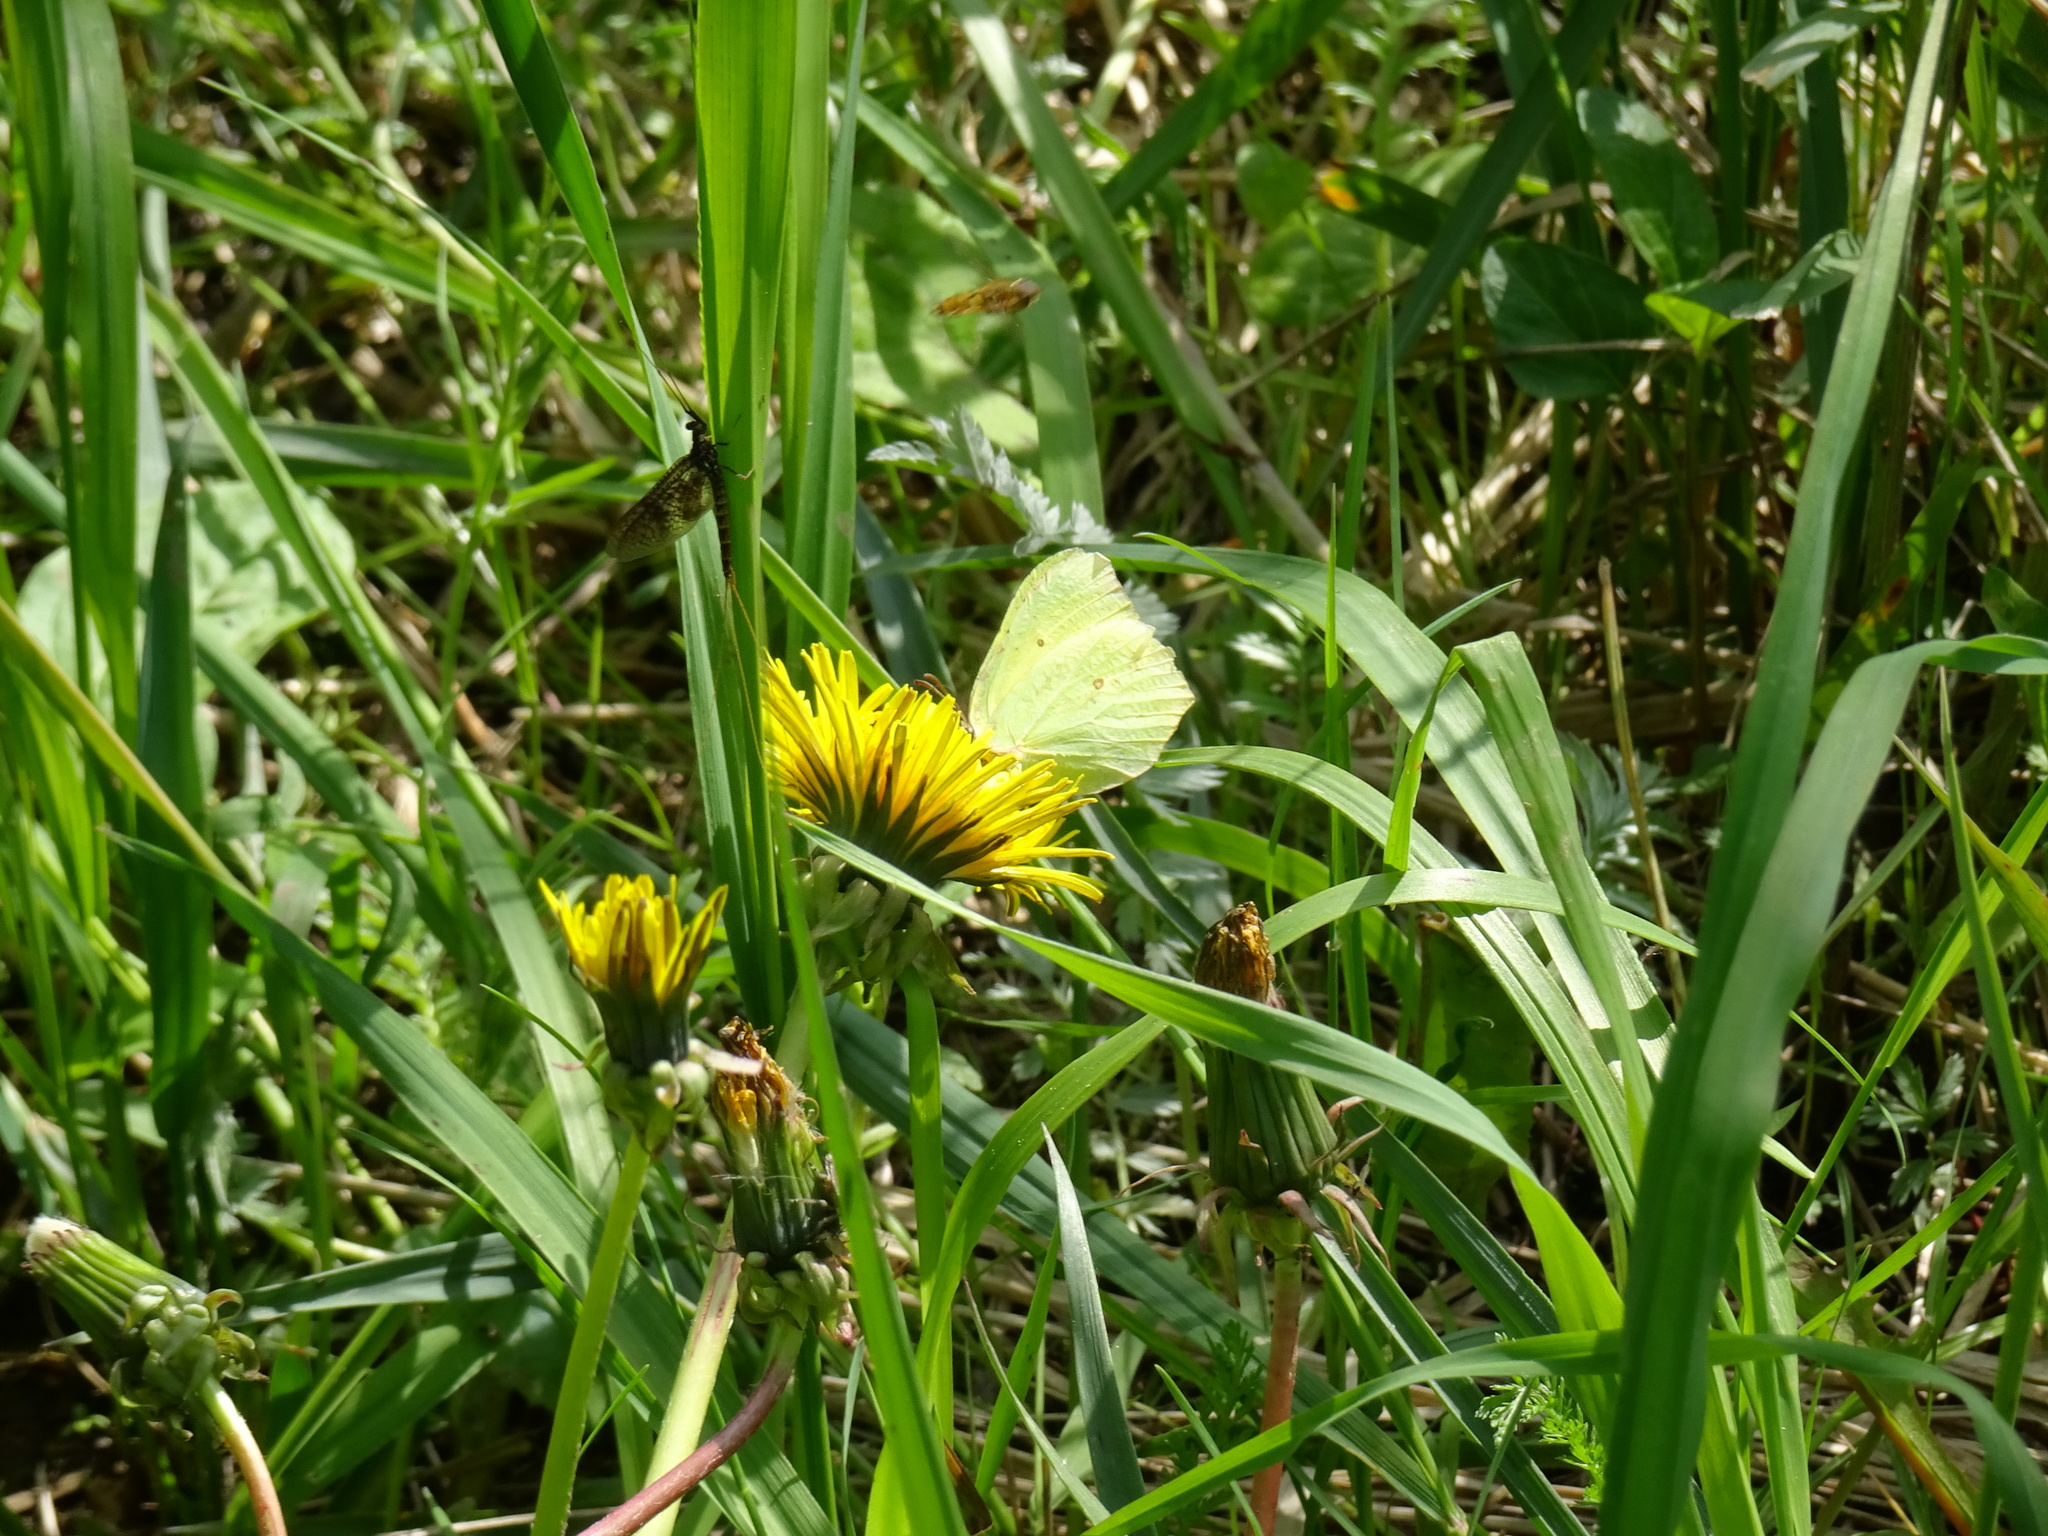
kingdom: Animalia
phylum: Arthropoda
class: Insecta
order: Lepidoptera
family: Pieridae
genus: Gonepteryx
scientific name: Gonepteryx rhamni
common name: Brimstone
